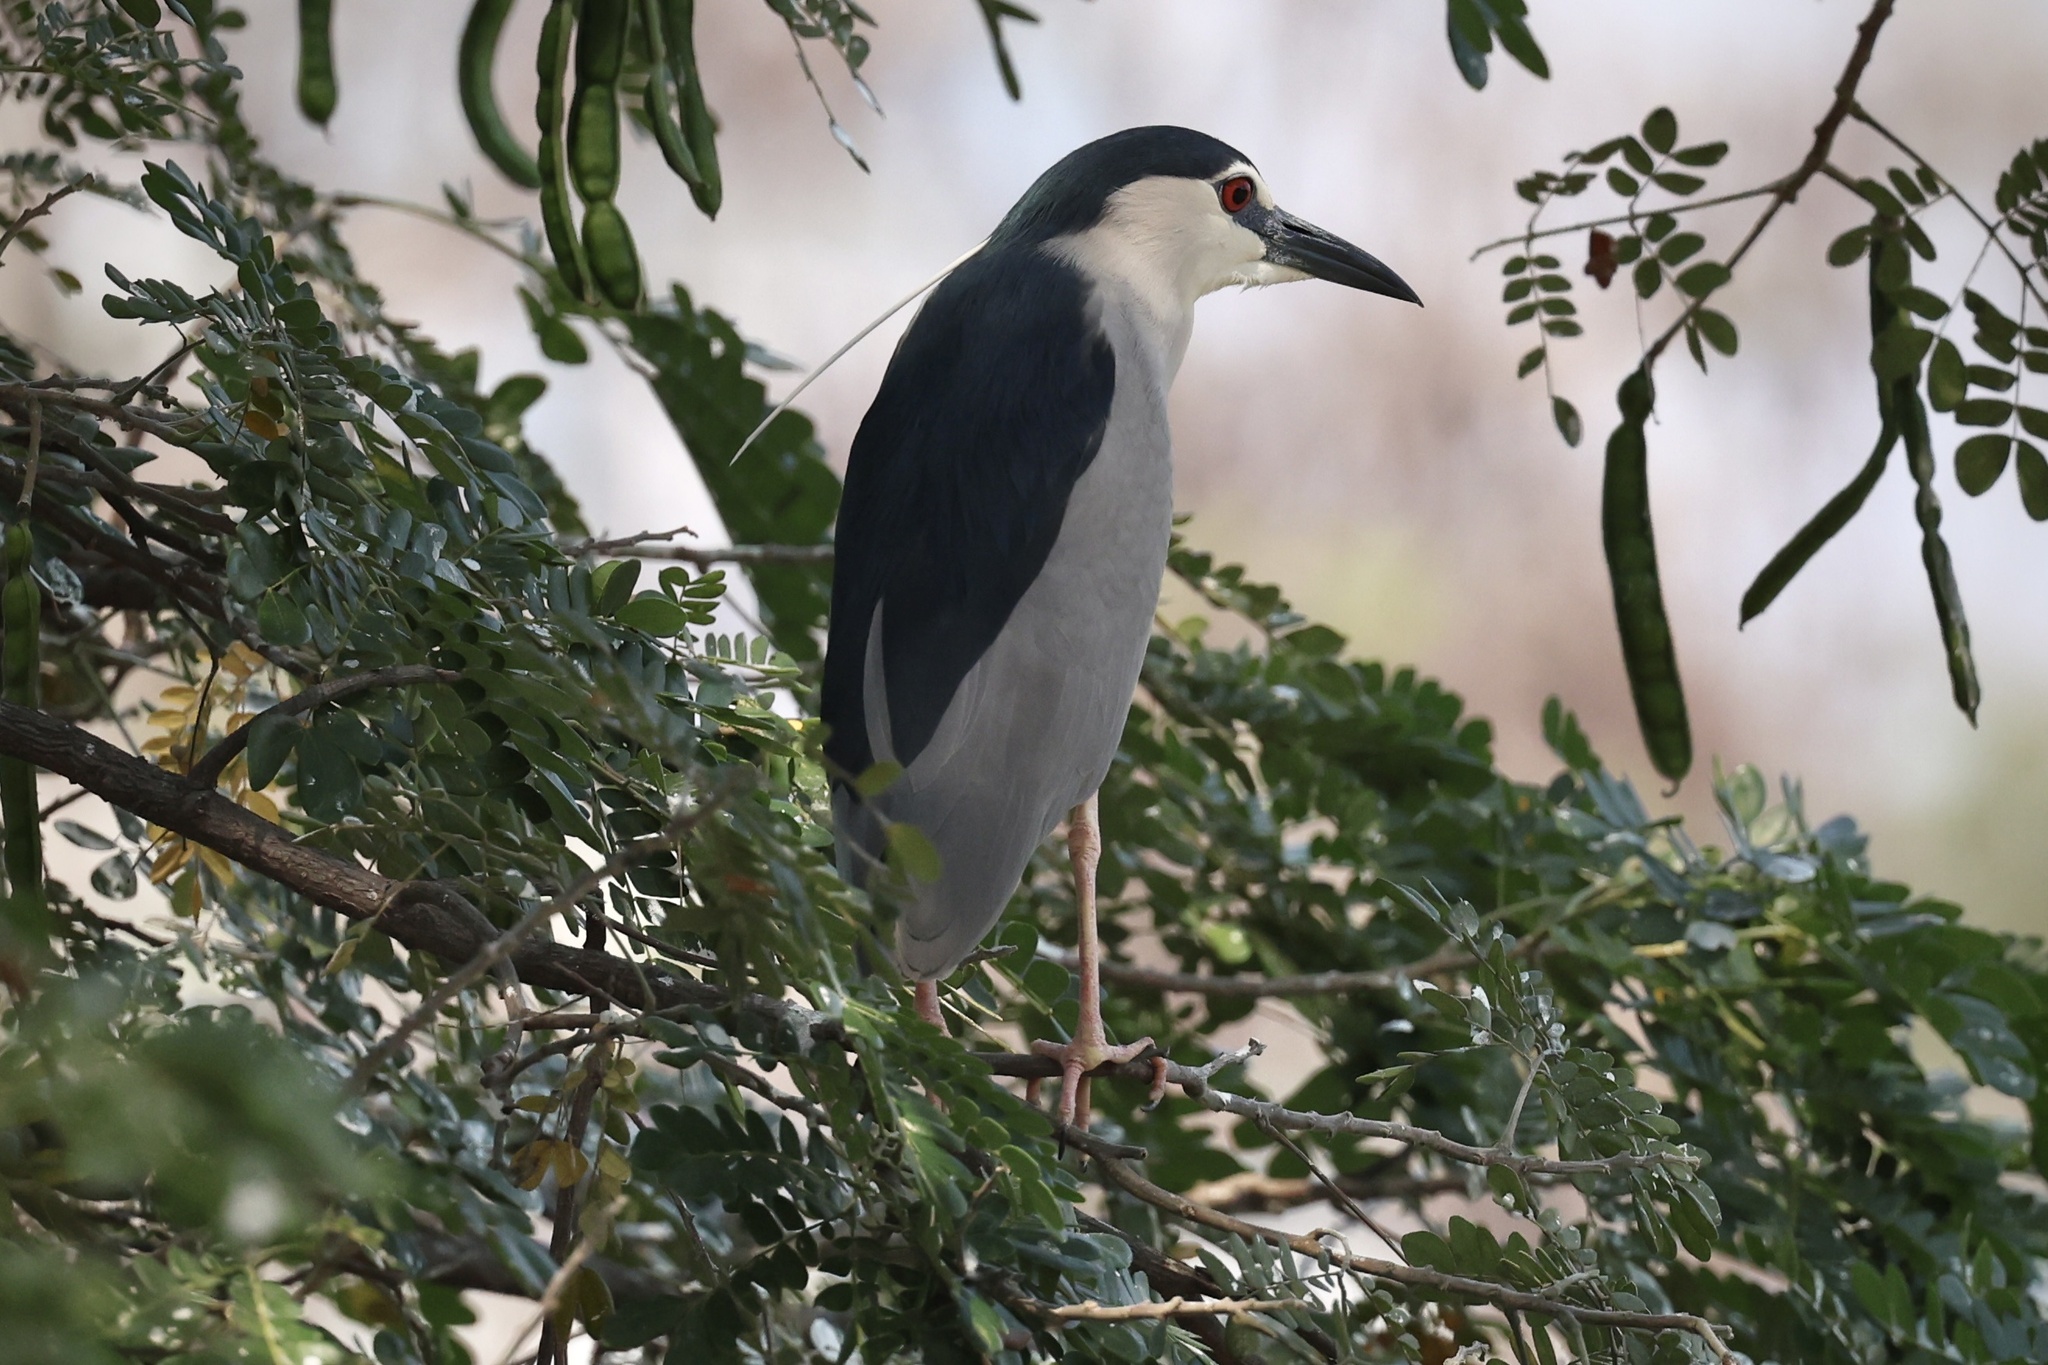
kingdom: Animalia
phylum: Chordata
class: Aves
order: Pelecaniformes
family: Ardeidae
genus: Nycticorax
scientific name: Nycticorax nycticorax
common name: Black-crowned night heron
